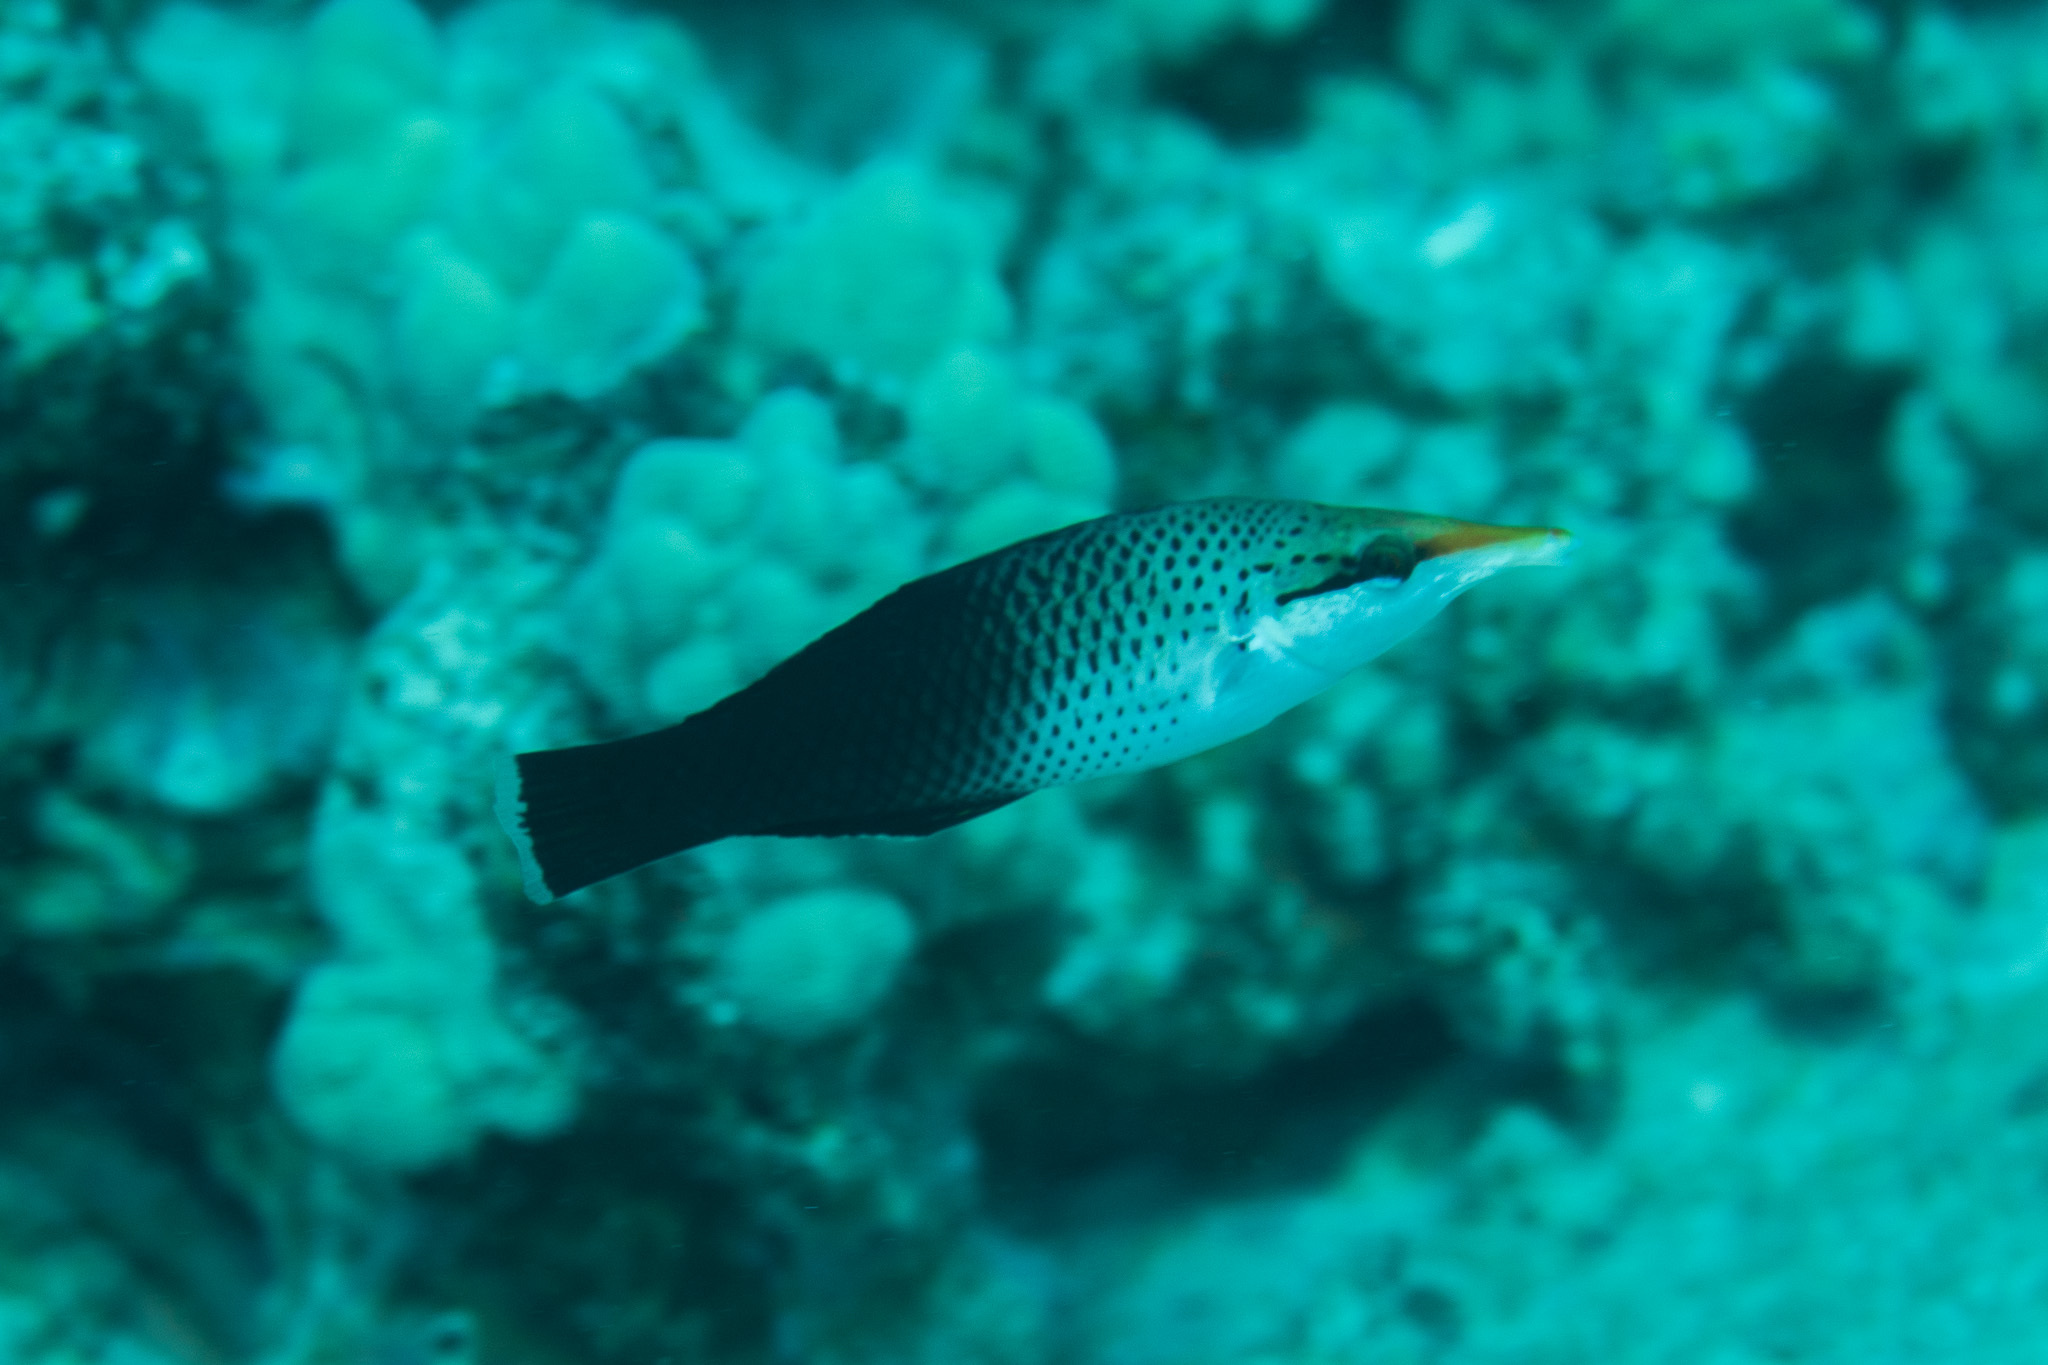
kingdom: Animalia
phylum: Chordata
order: Perciformes
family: Labridae
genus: Gomphosus
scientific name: Gomphosus varius
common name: Bird wrasse
